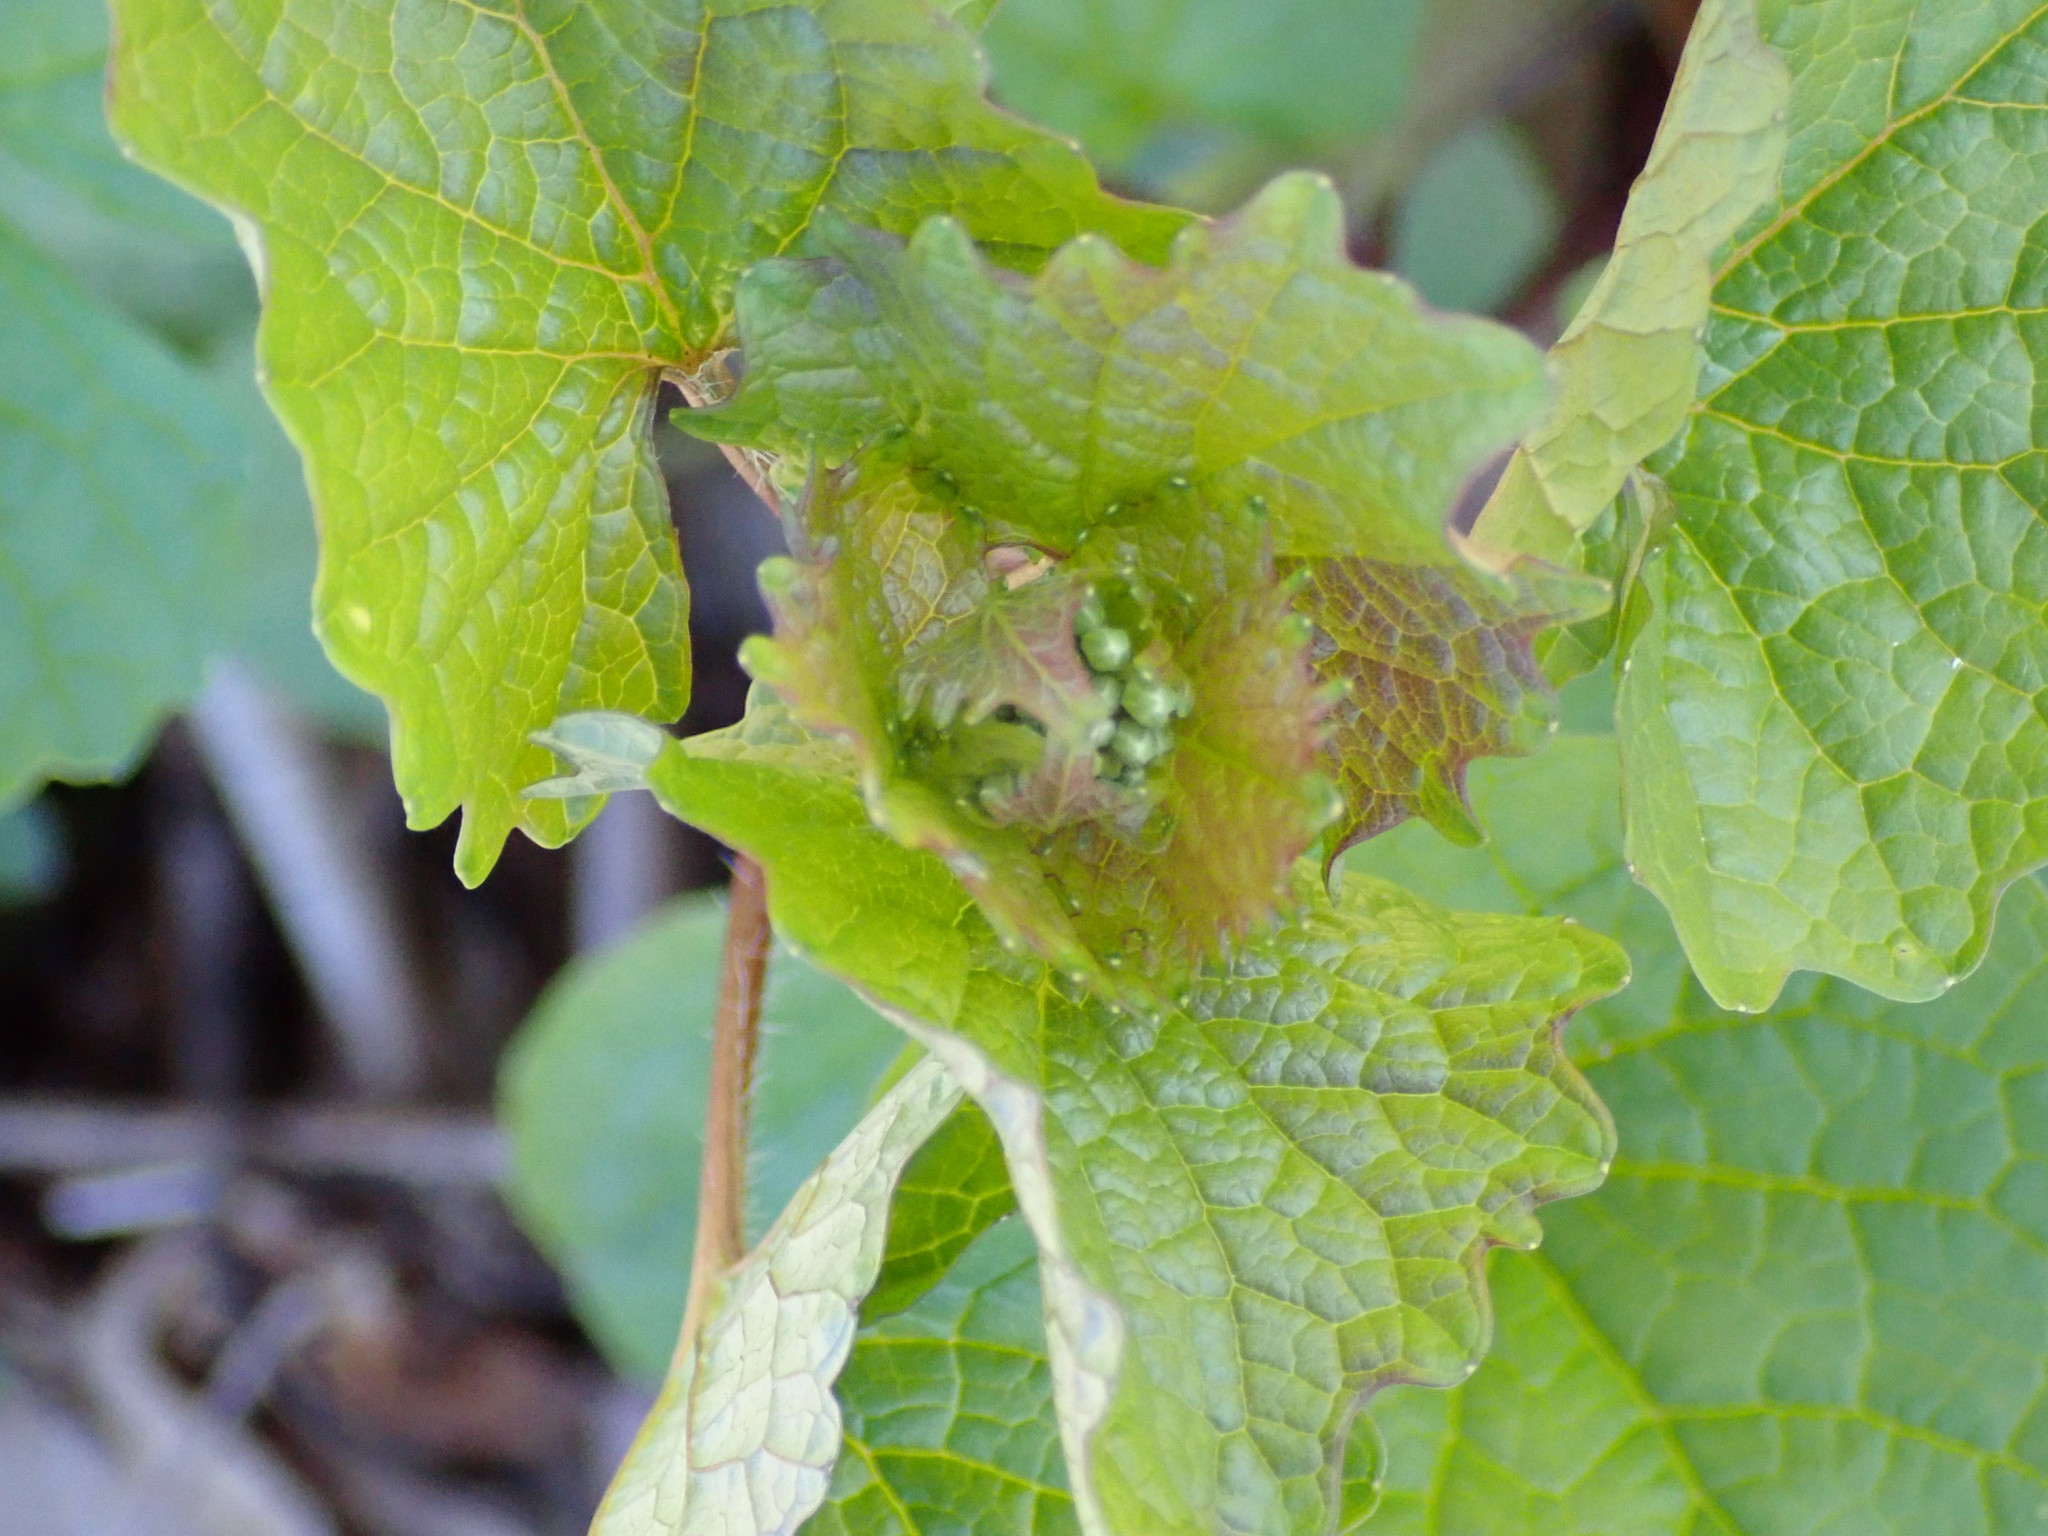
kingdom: Plantae
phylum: Tracheophyta
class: Magnoliopsida
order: Brassicales
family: Brassicaceae
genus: Alliaria
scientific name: Alliaria petiolata
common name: Garlic mustard
